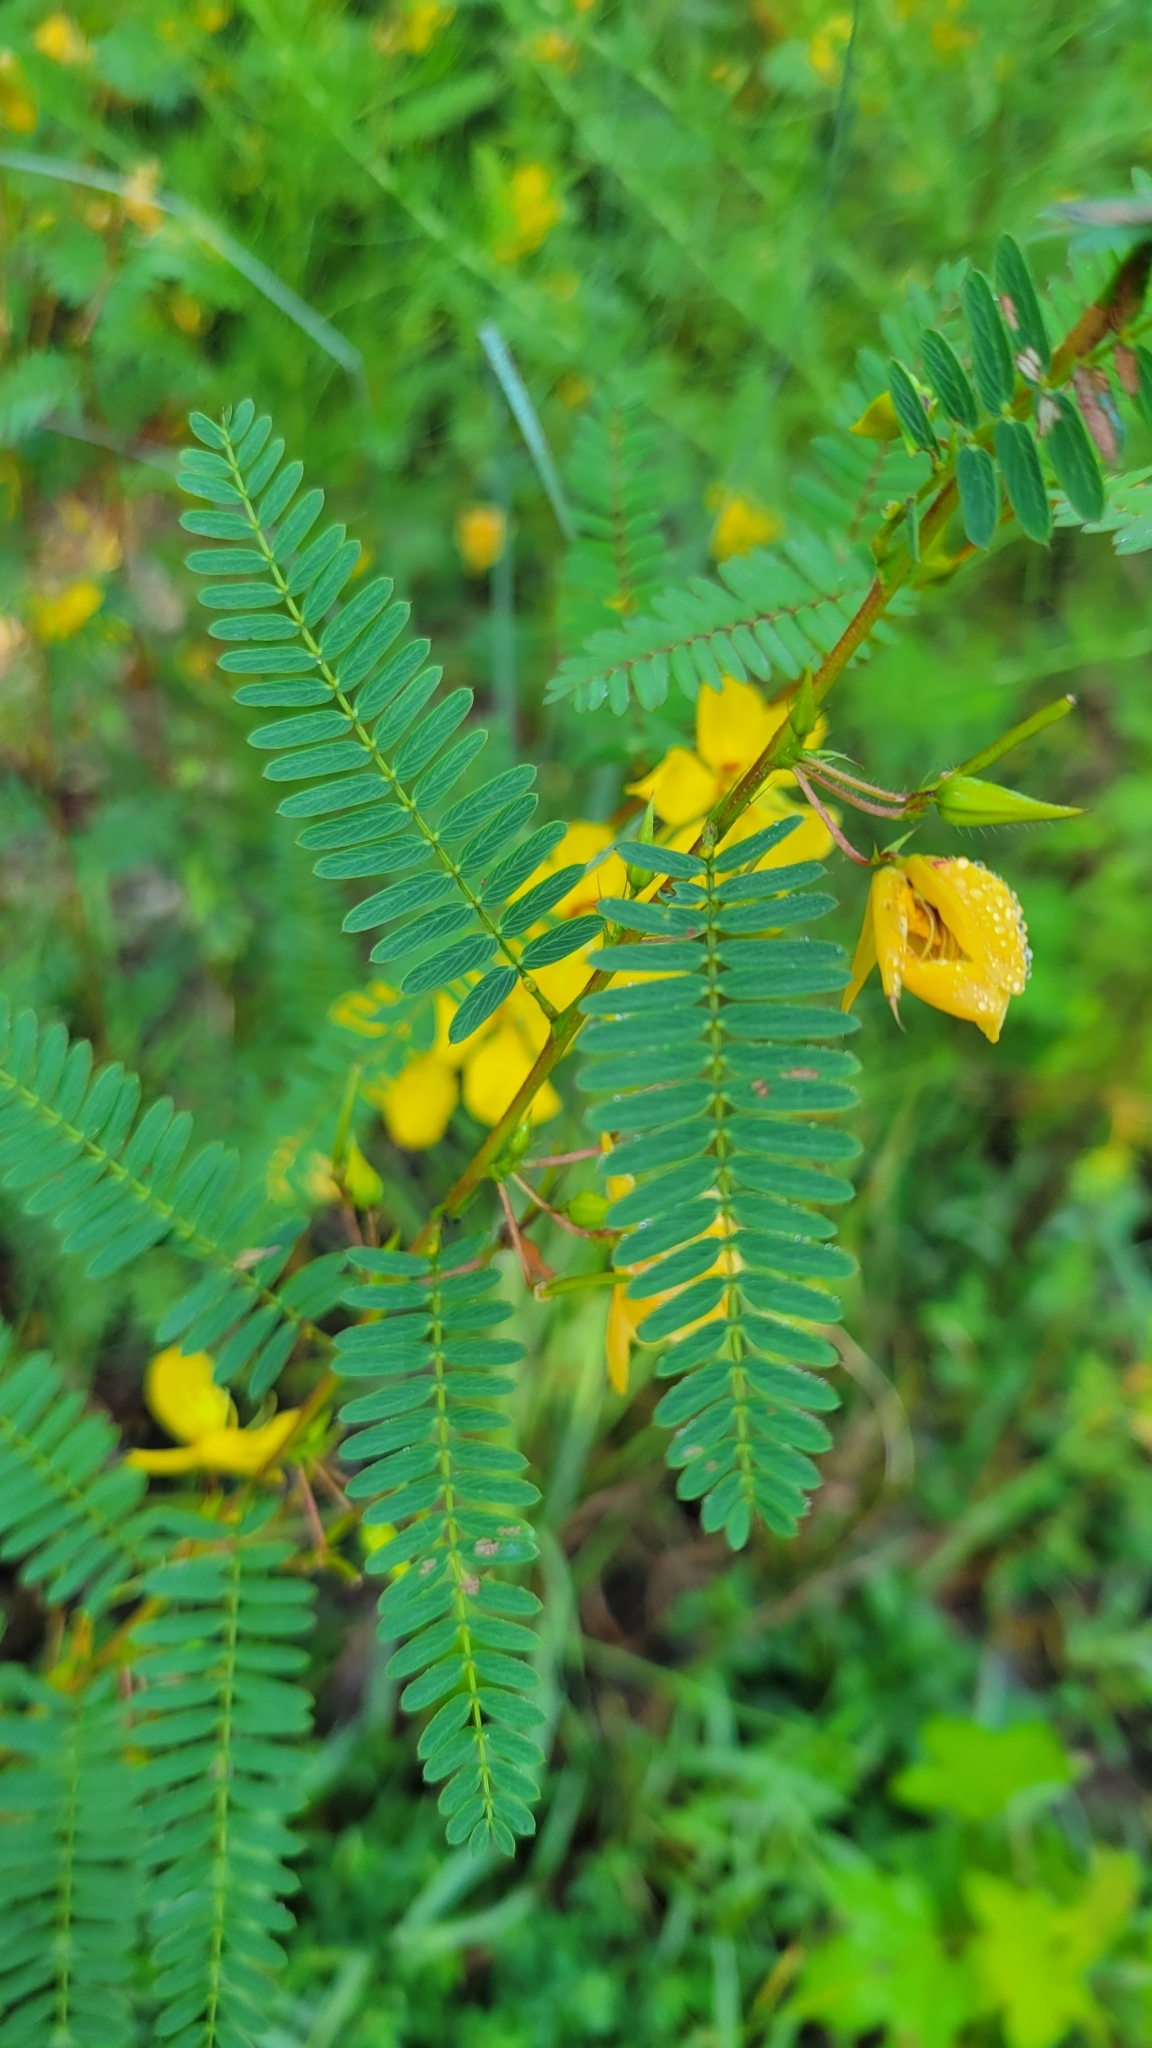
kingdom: Plantae
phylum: Tracheophyta
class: Magnoliopsida
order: Fabales
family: Fabaceae
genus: Chamaecrista
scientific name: Chamaecrista fasciculata
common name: Golden cassia
